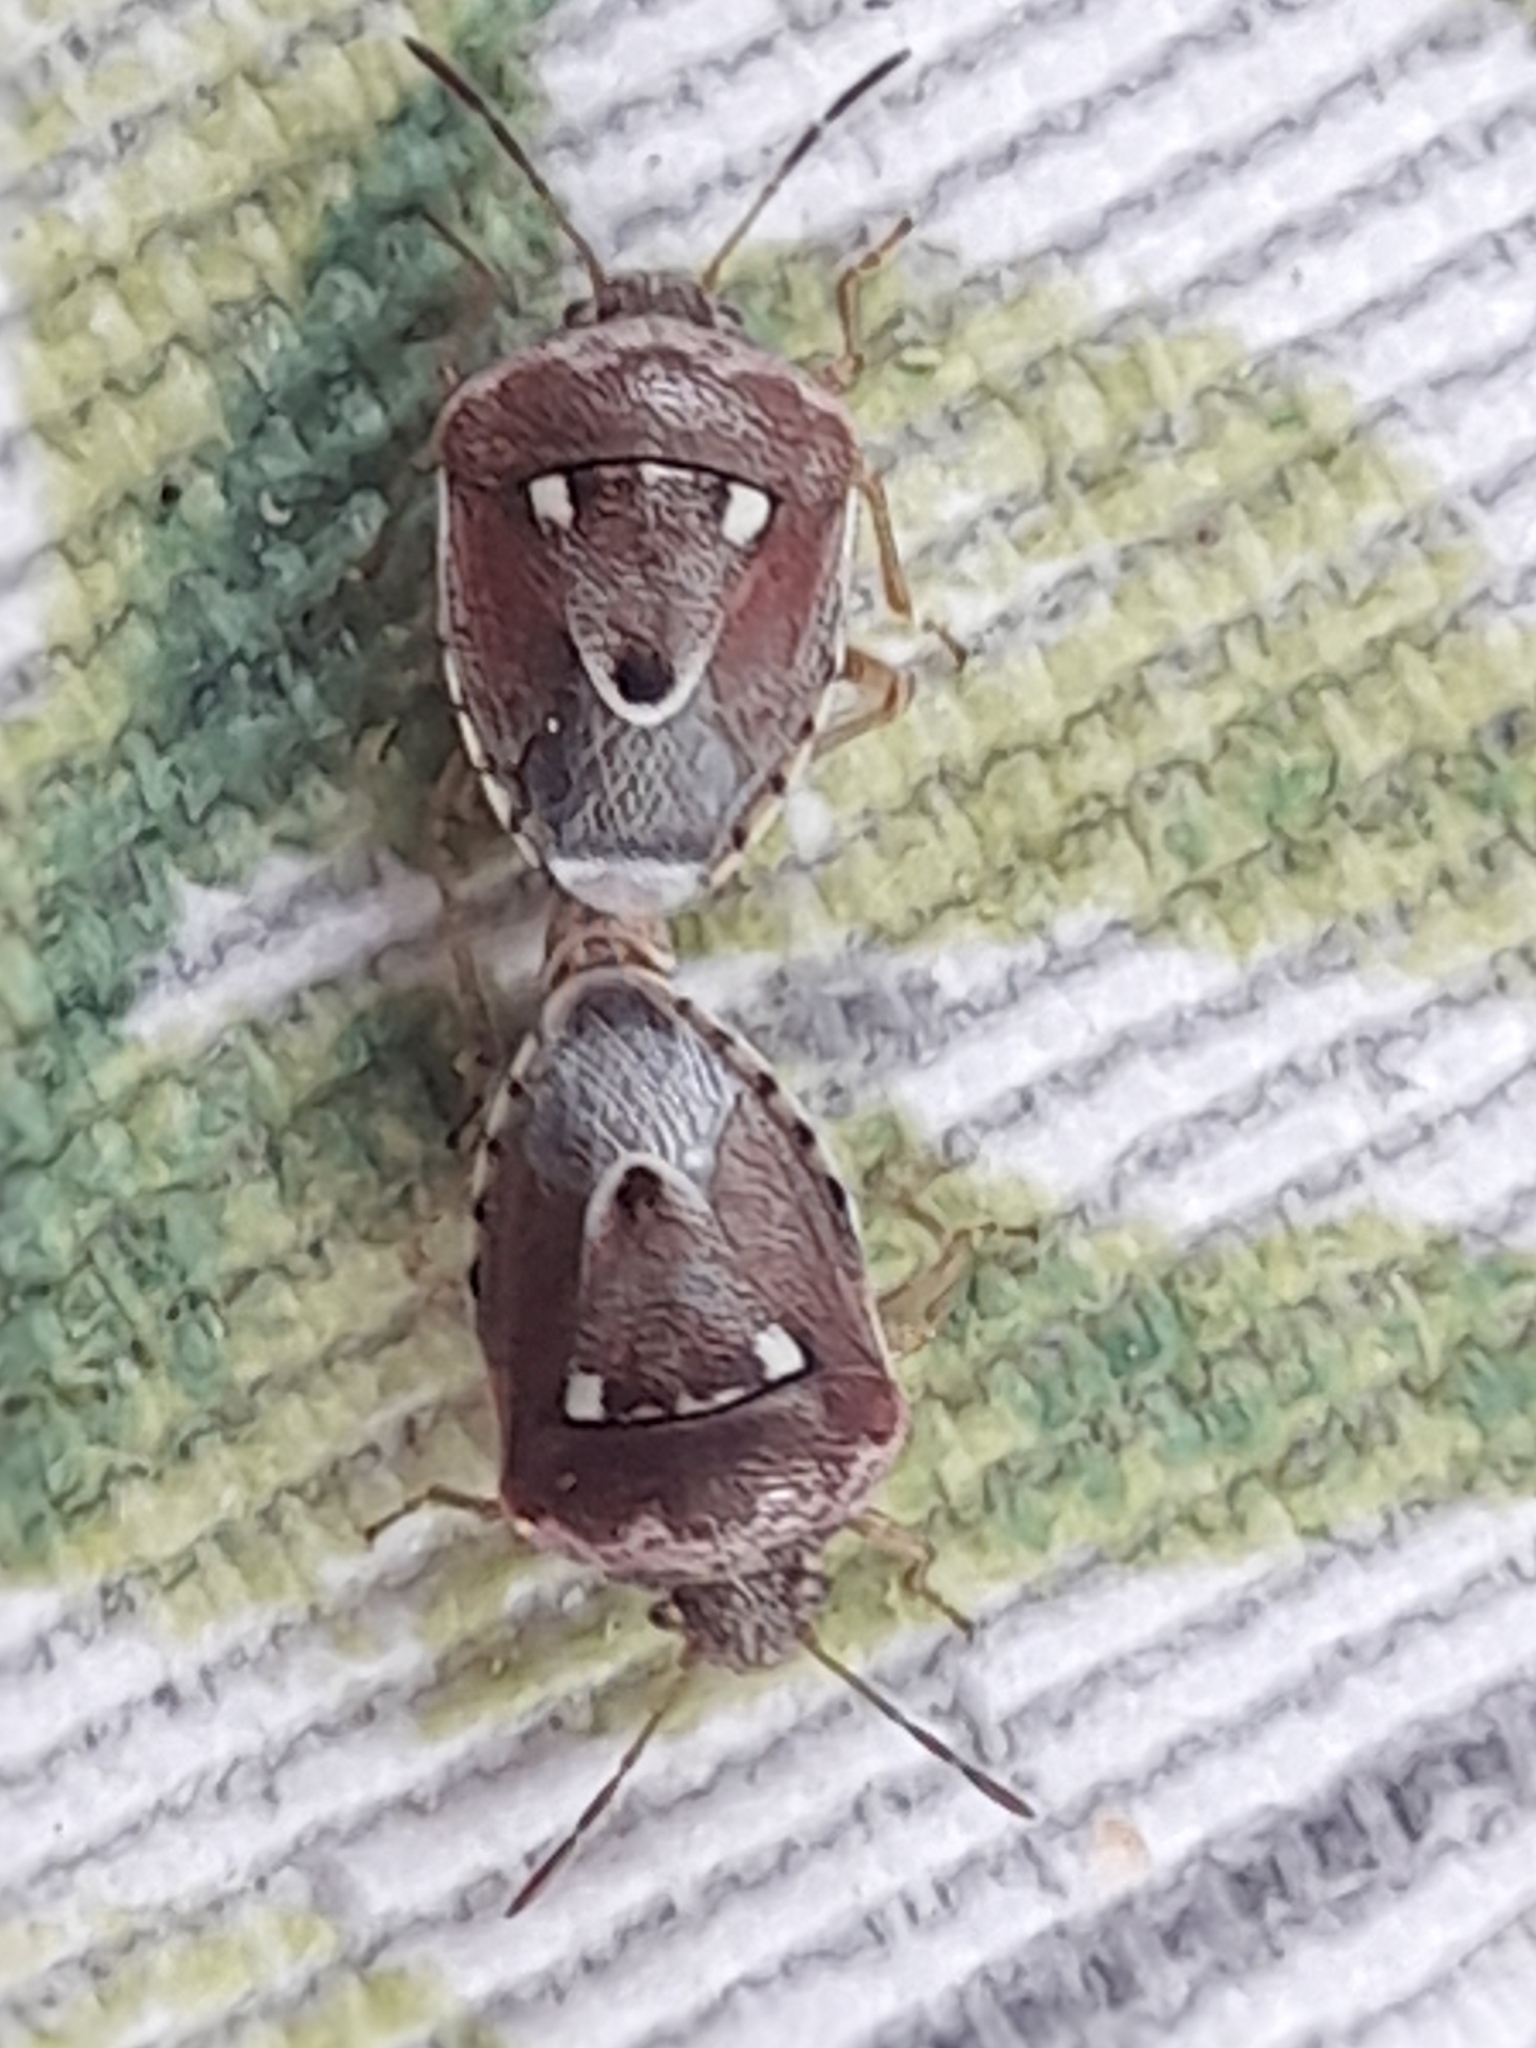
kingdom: Animalia
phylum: Arthropoda
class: Insecta
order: Hemiptera
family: Pentatomidae
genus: Stagonomus
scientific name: Stagonomus bipunctatus
